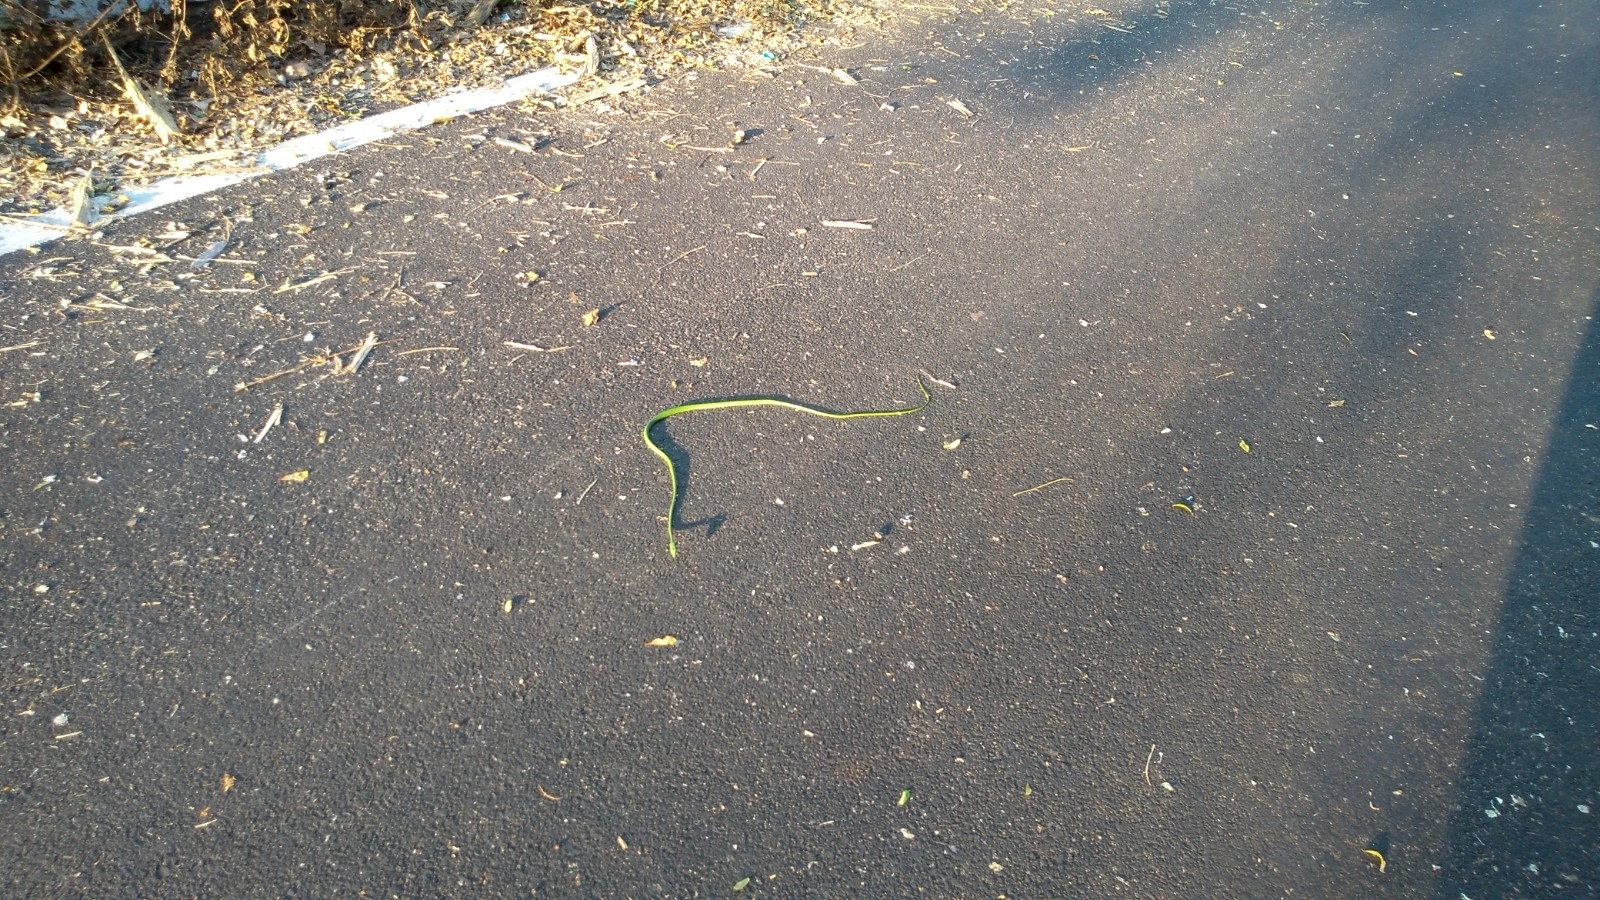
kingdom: Animalia
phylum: Chordata
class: Squamata
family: Colubridae
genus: Ahaetulla
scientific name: Ahaetulla oxyrhyncha
